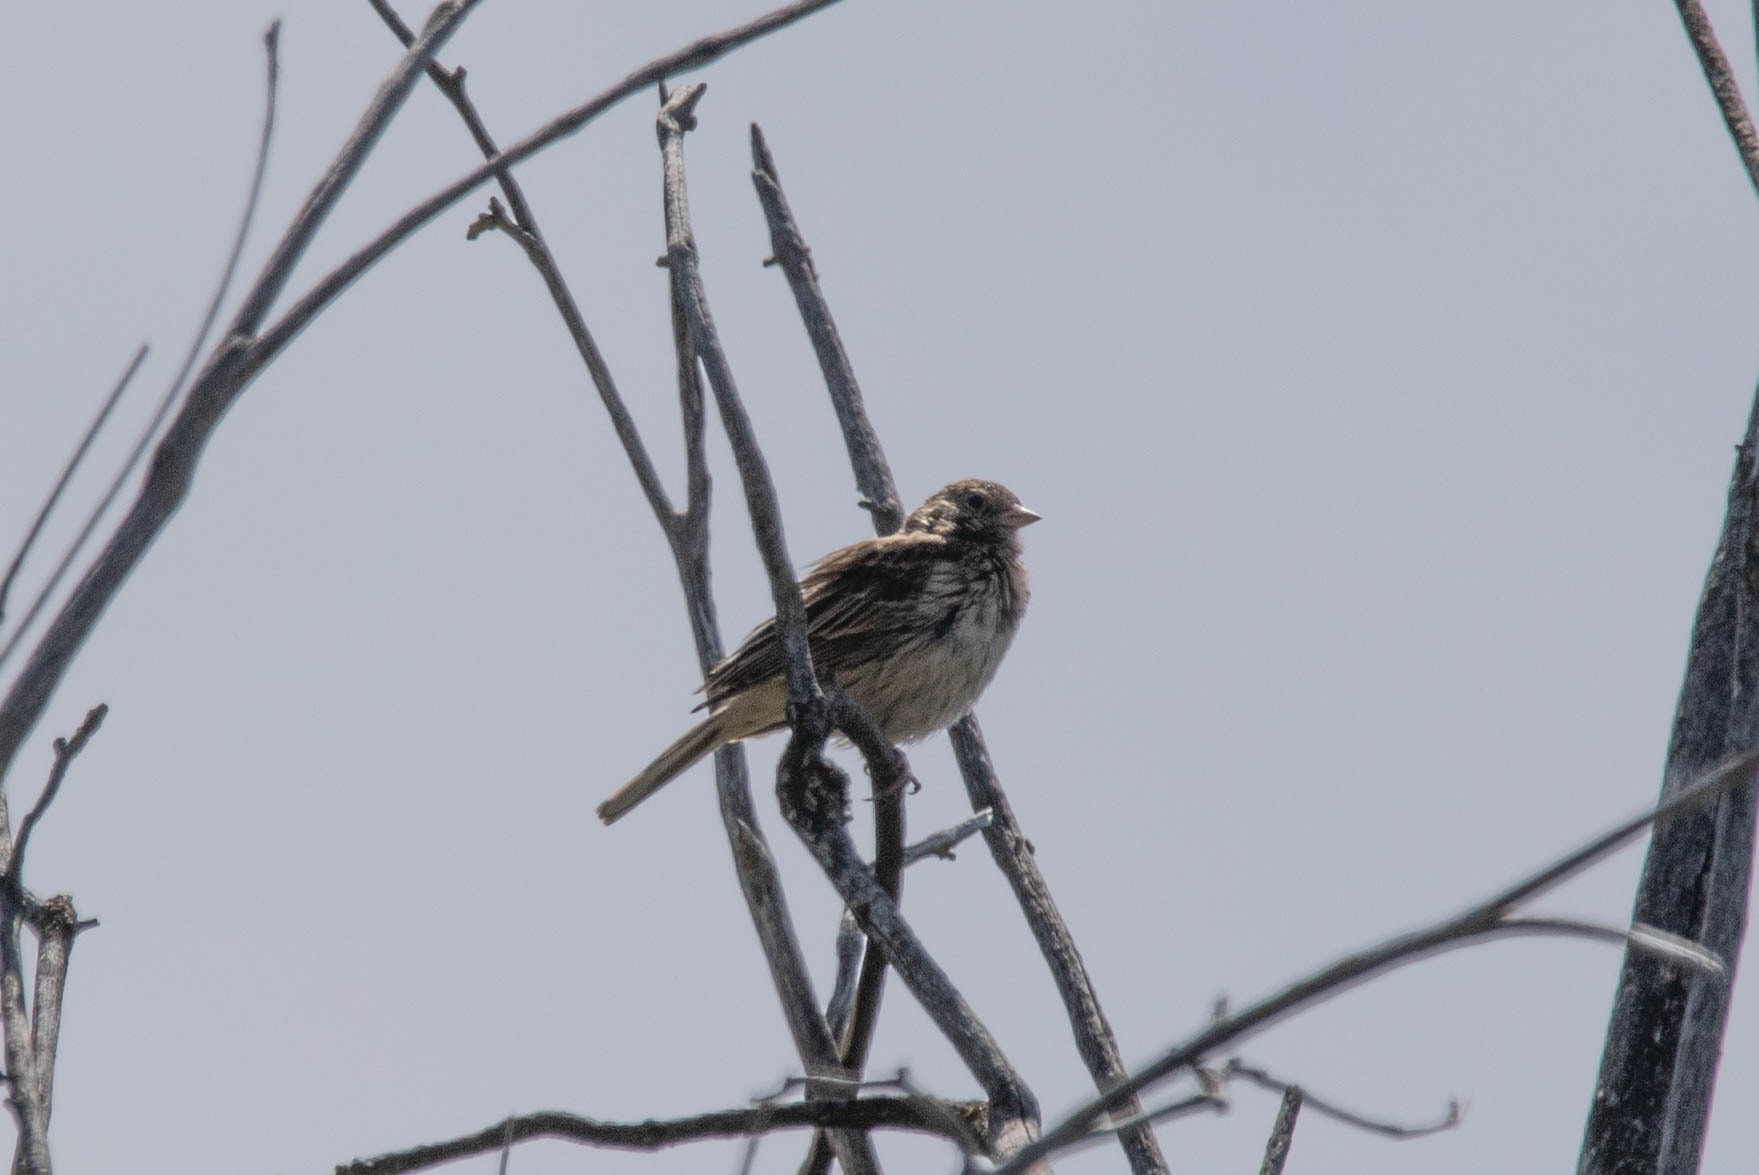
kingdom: Animalia
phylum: Chordata
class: Aves
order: Passeriformes
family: Passerellidae
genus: Pooecetes
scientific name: Pooecetes gramineus
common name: Vesper sparrow
